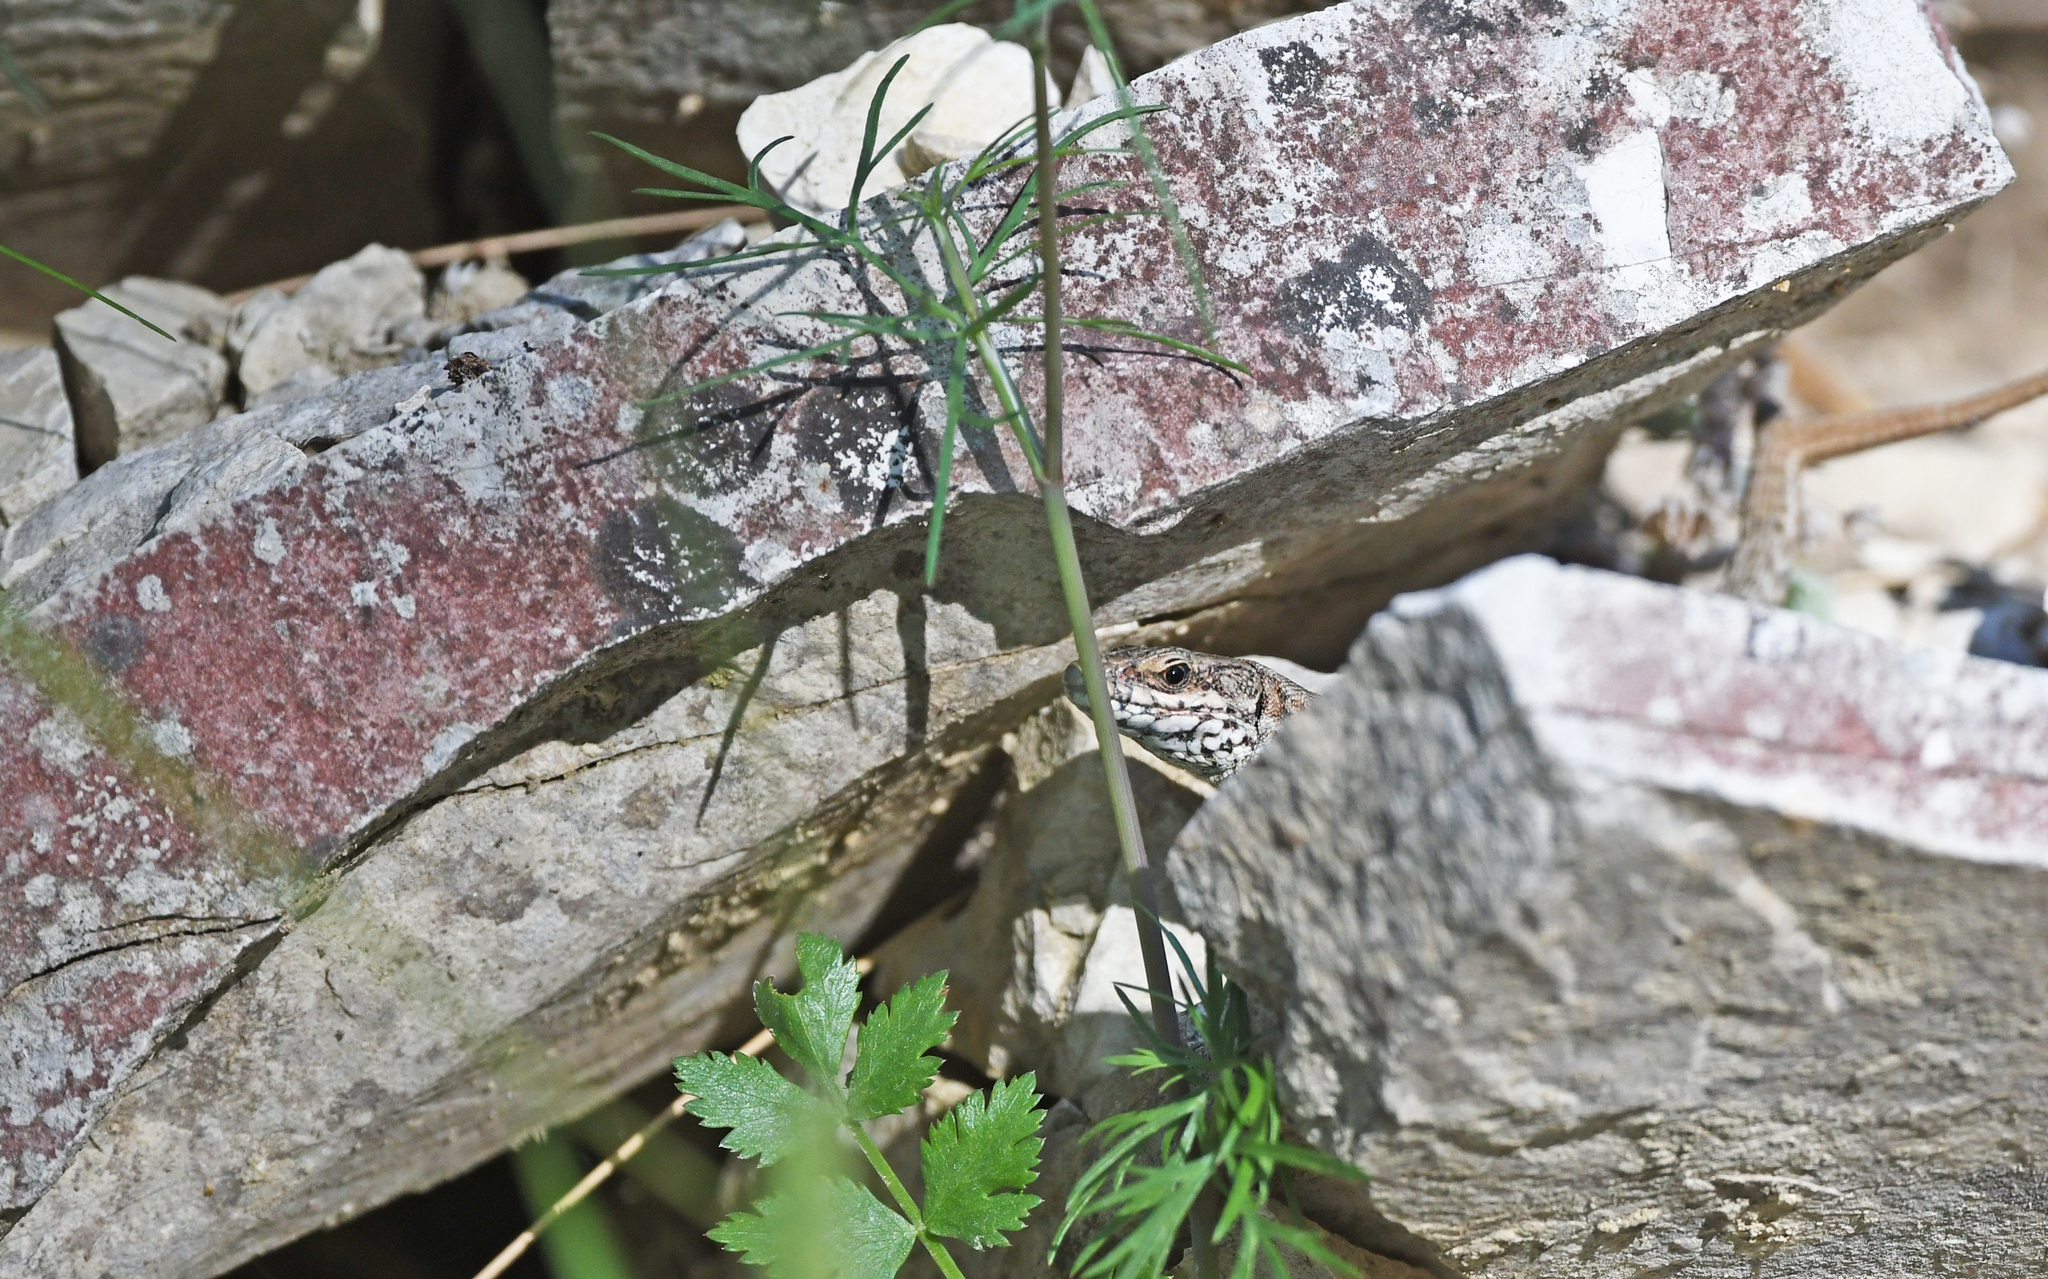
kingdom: Animalia
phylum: Chordata
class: Squamata
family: Lacertidae
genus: Podarcis
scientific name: Podarcis muralis
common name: Common wall lizard
